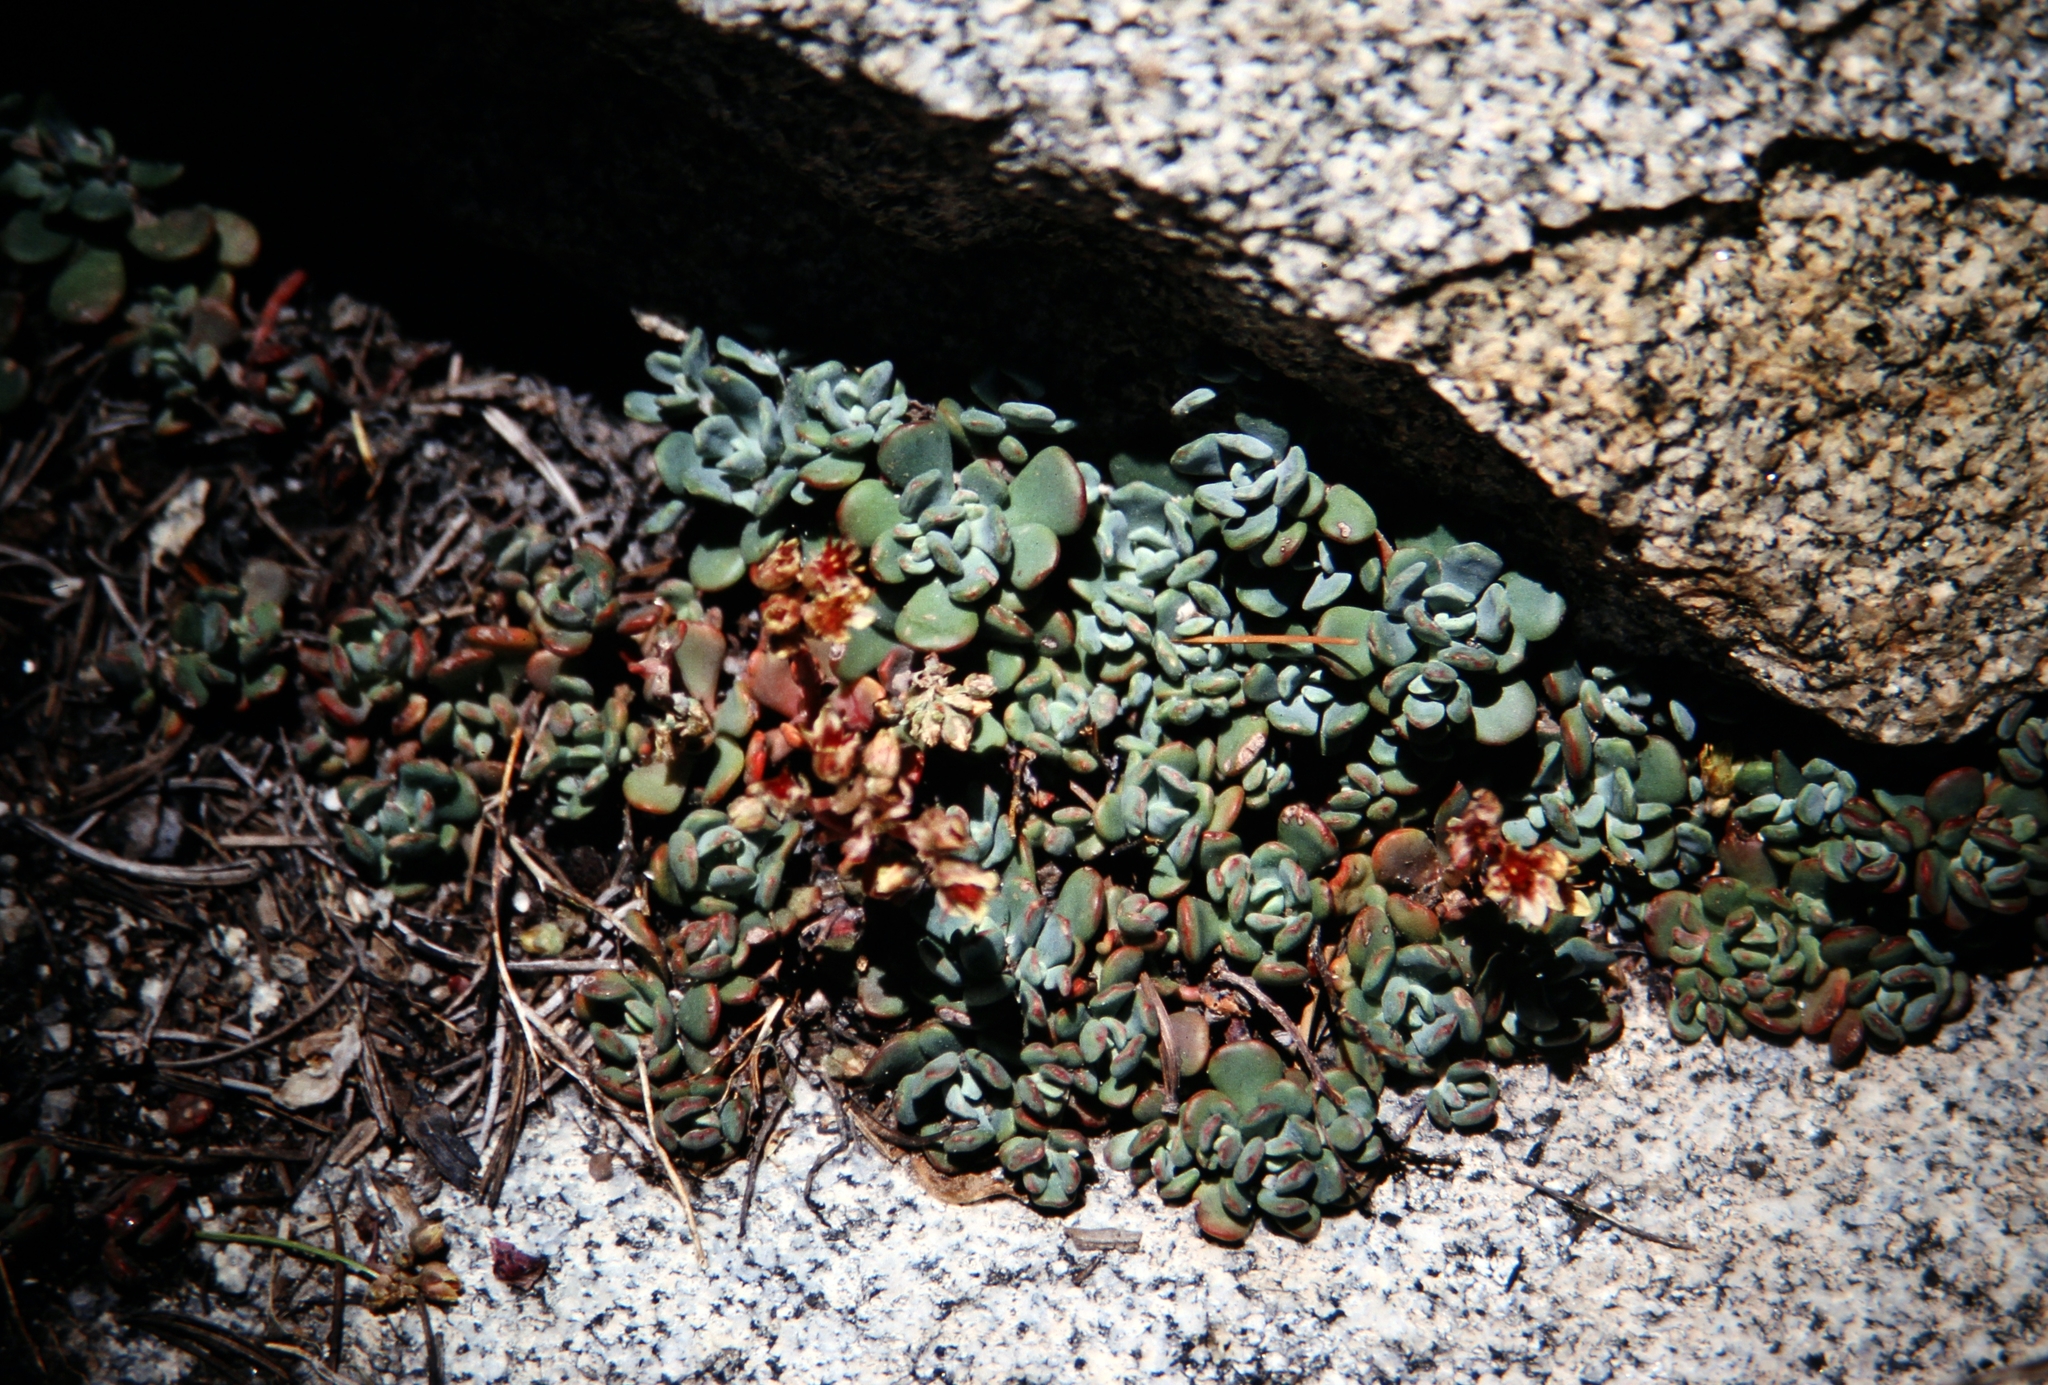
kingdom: Plantae
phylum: Tracheophyta
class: Magnoliopsida
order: Saxifragales
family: Crassulaceae
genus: Sedum
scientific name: Sedum obtusatum
